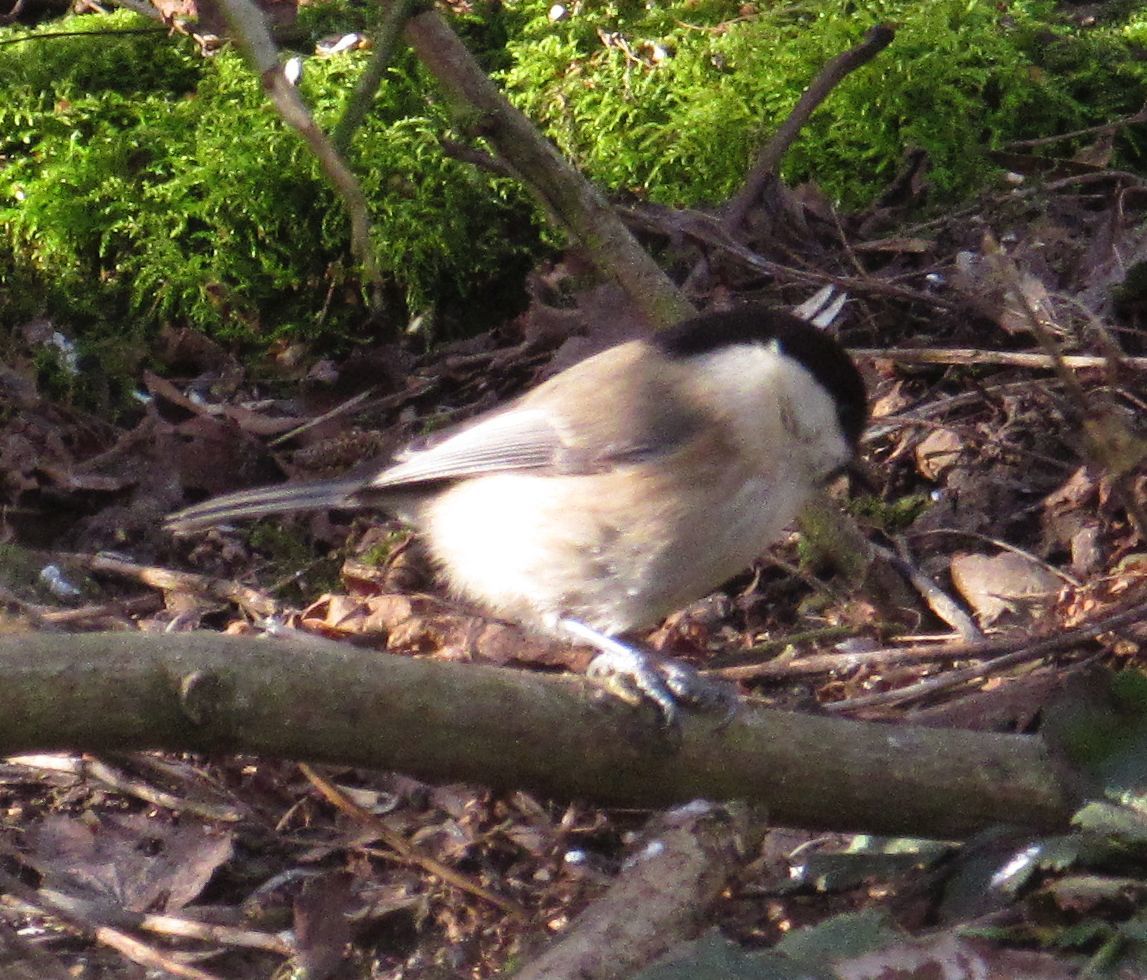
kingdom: Animalia
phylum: Chordata
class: Aves
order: Passeriformes
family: Paridae
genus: Poecile
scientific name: Poecile montanus
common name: Willow tit
